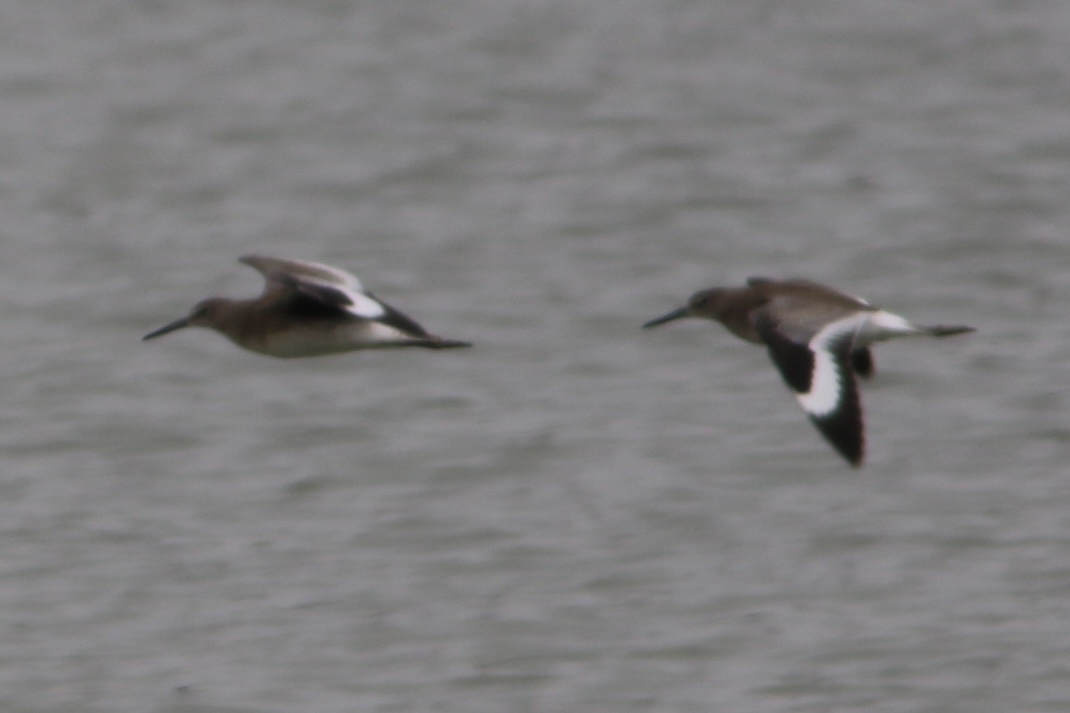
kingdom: Animalia
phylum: Chordata
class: Aves
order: Charadriiformes
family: Scolopacidae
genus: Tringa
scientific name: Tringa semipalmata
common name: Willet
